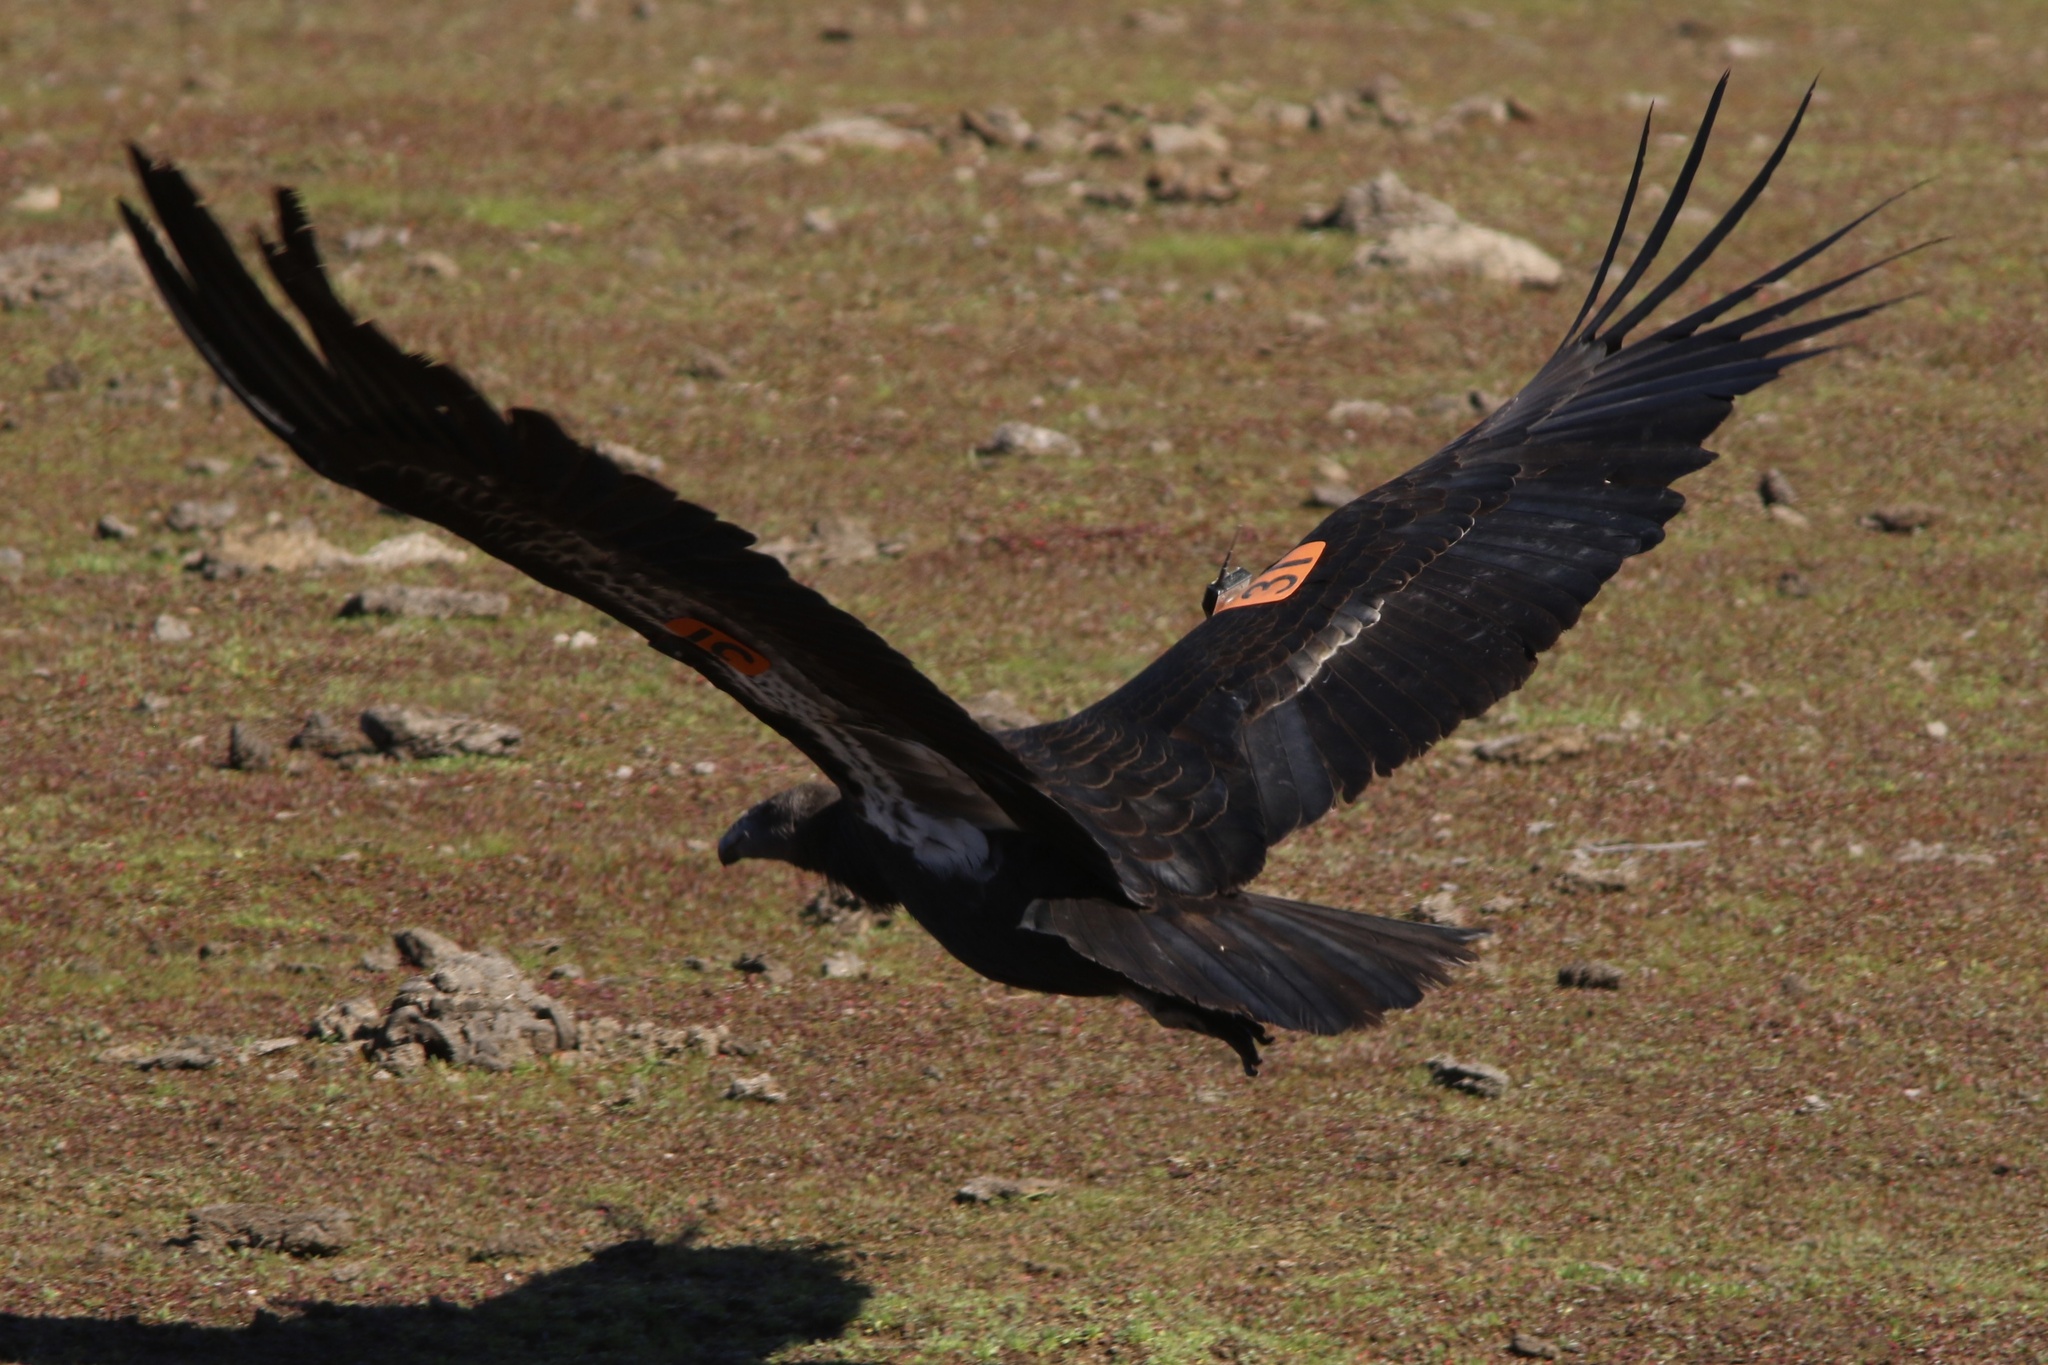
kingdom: Animalia
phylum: Chordata
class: Aves
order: Accipitriformes
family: Cathartidae
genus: Gymnogyps
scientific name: Gymnogyps californianus
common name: California condor
